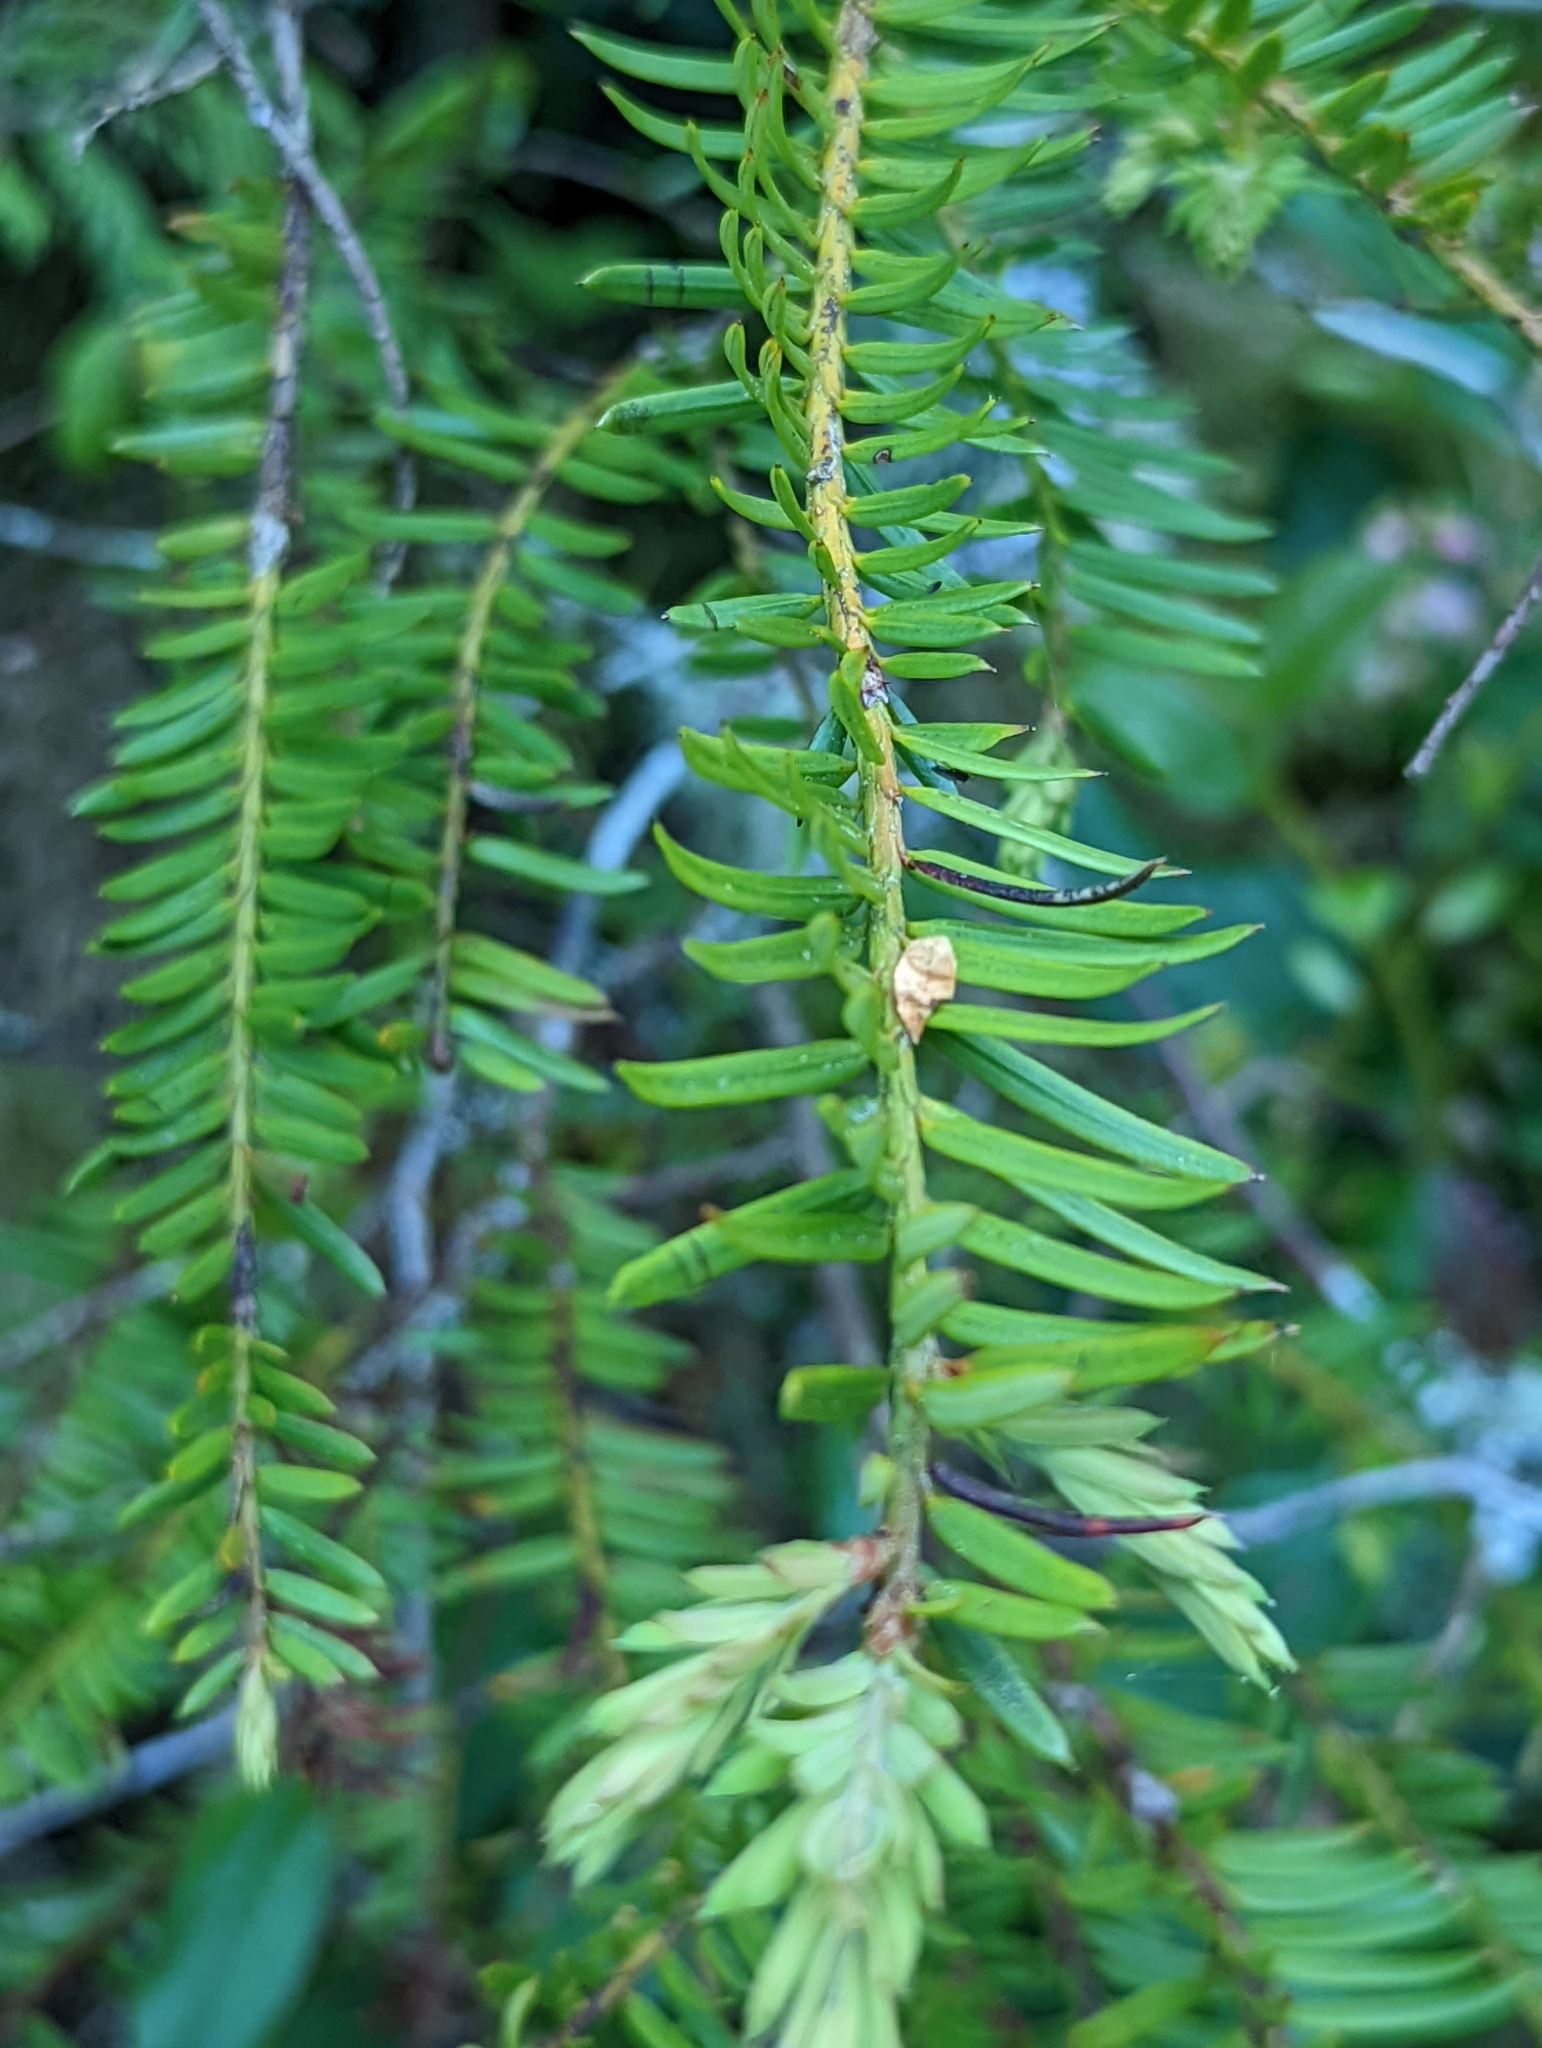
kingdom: Plantae
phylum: Tracheophyta
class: Pinopsida
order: Pinales
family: Taxaceae
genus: Taxus
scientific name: Taxus brevifolia
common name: Pacific yew
